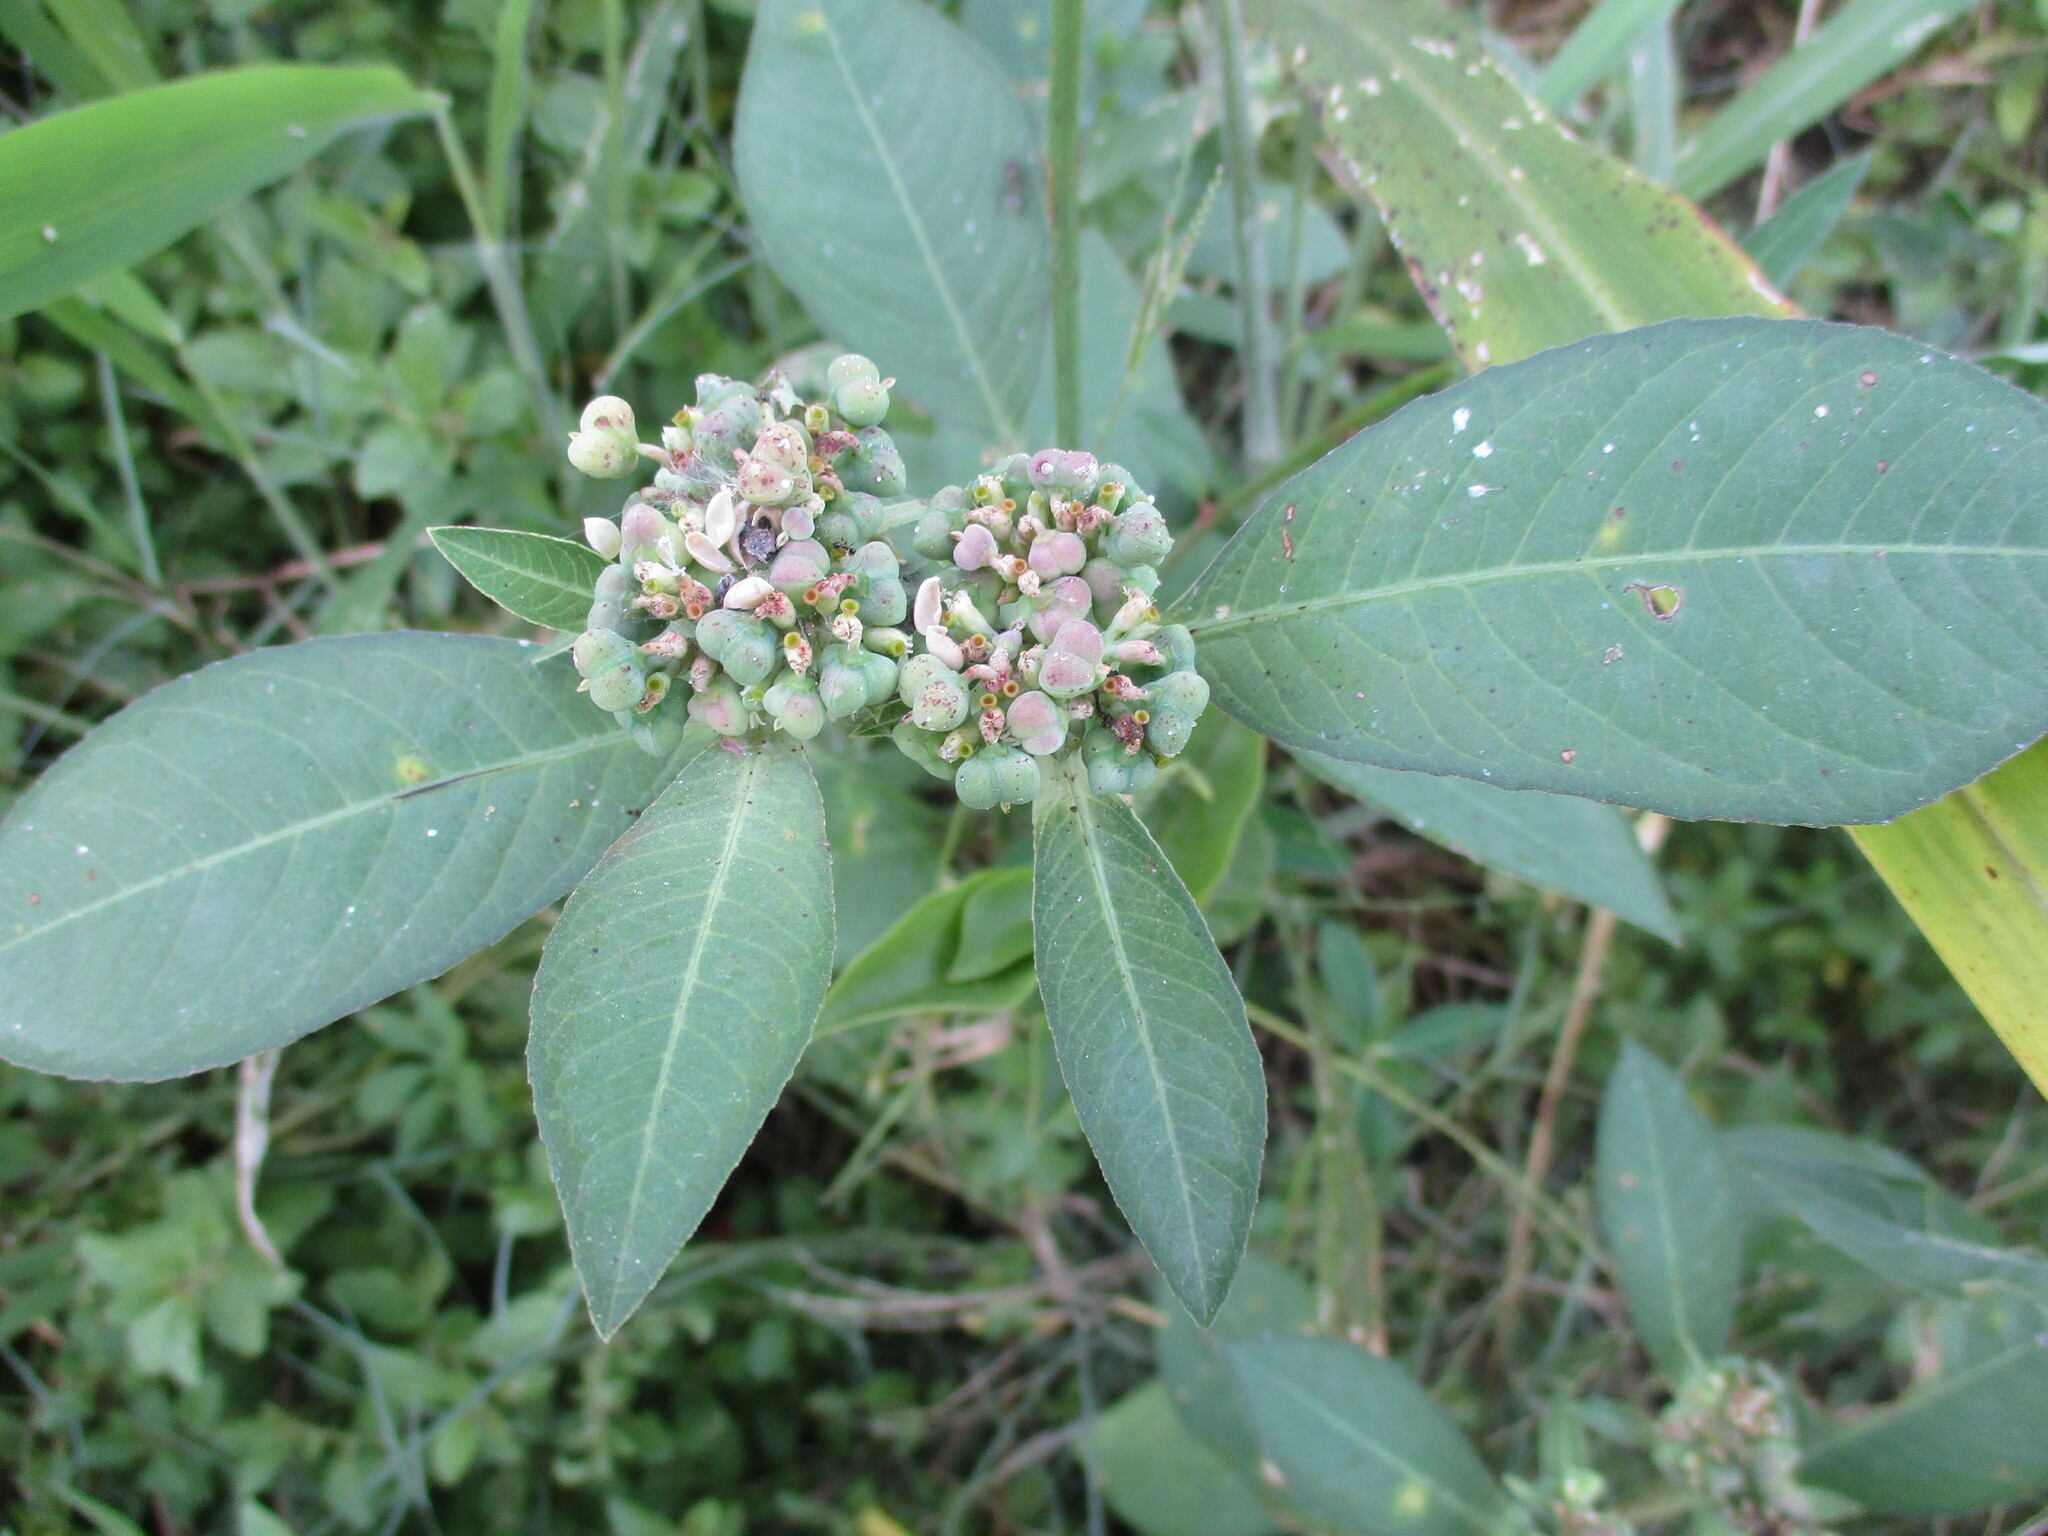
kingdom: Plantae
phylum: Tracheophyta
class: Magnoliopsida
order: Malpighiales
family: Euphorbiaceae
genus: Euphorbia
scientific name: Euphorbia heterophylla
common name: Mexican fireplant
